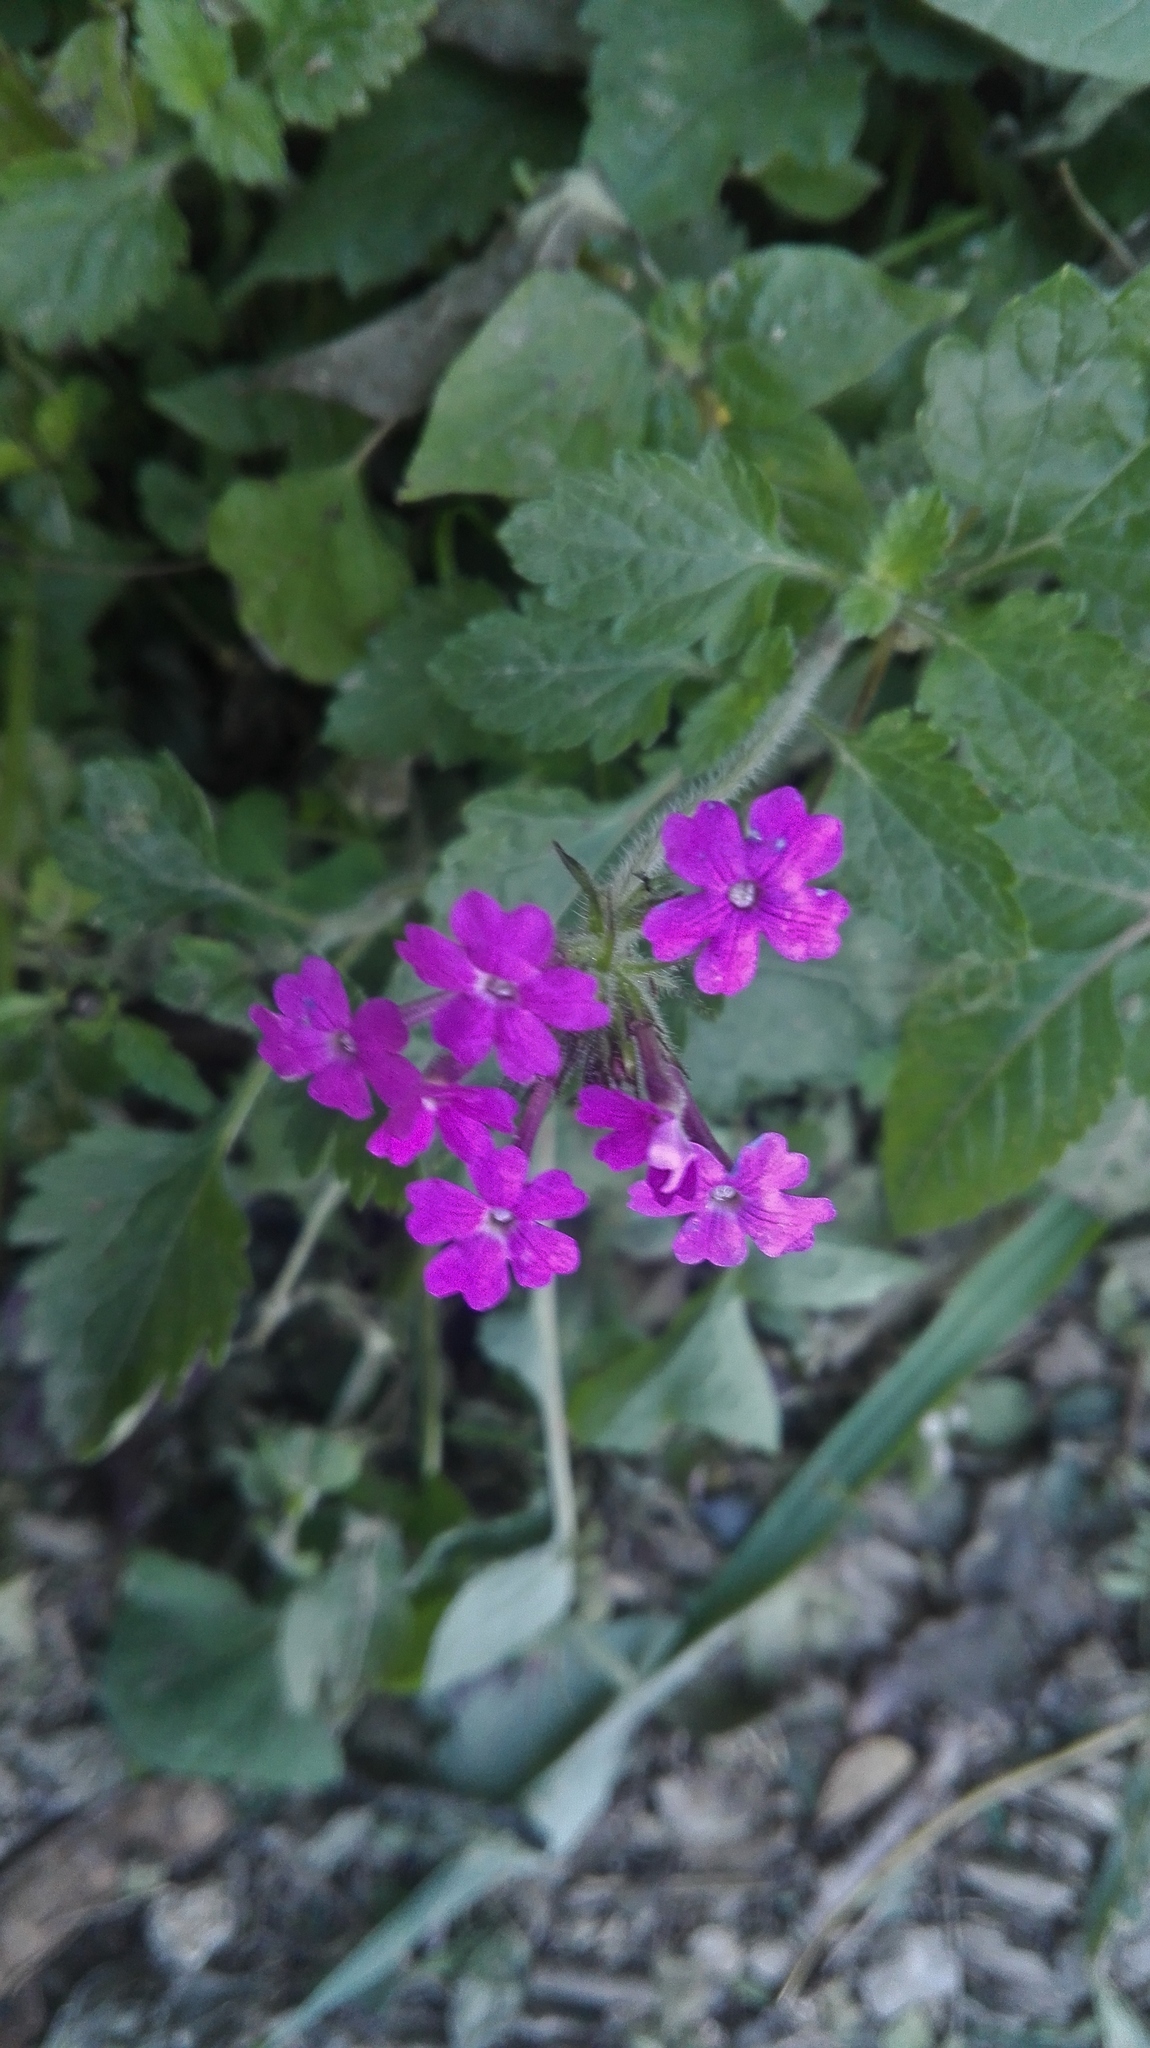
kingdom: Plantae
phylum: Tracheophyta
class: Magnoliopsida
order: Lamiales
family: Verbenaceae
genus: Verbena
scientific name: Verbena canadensis
